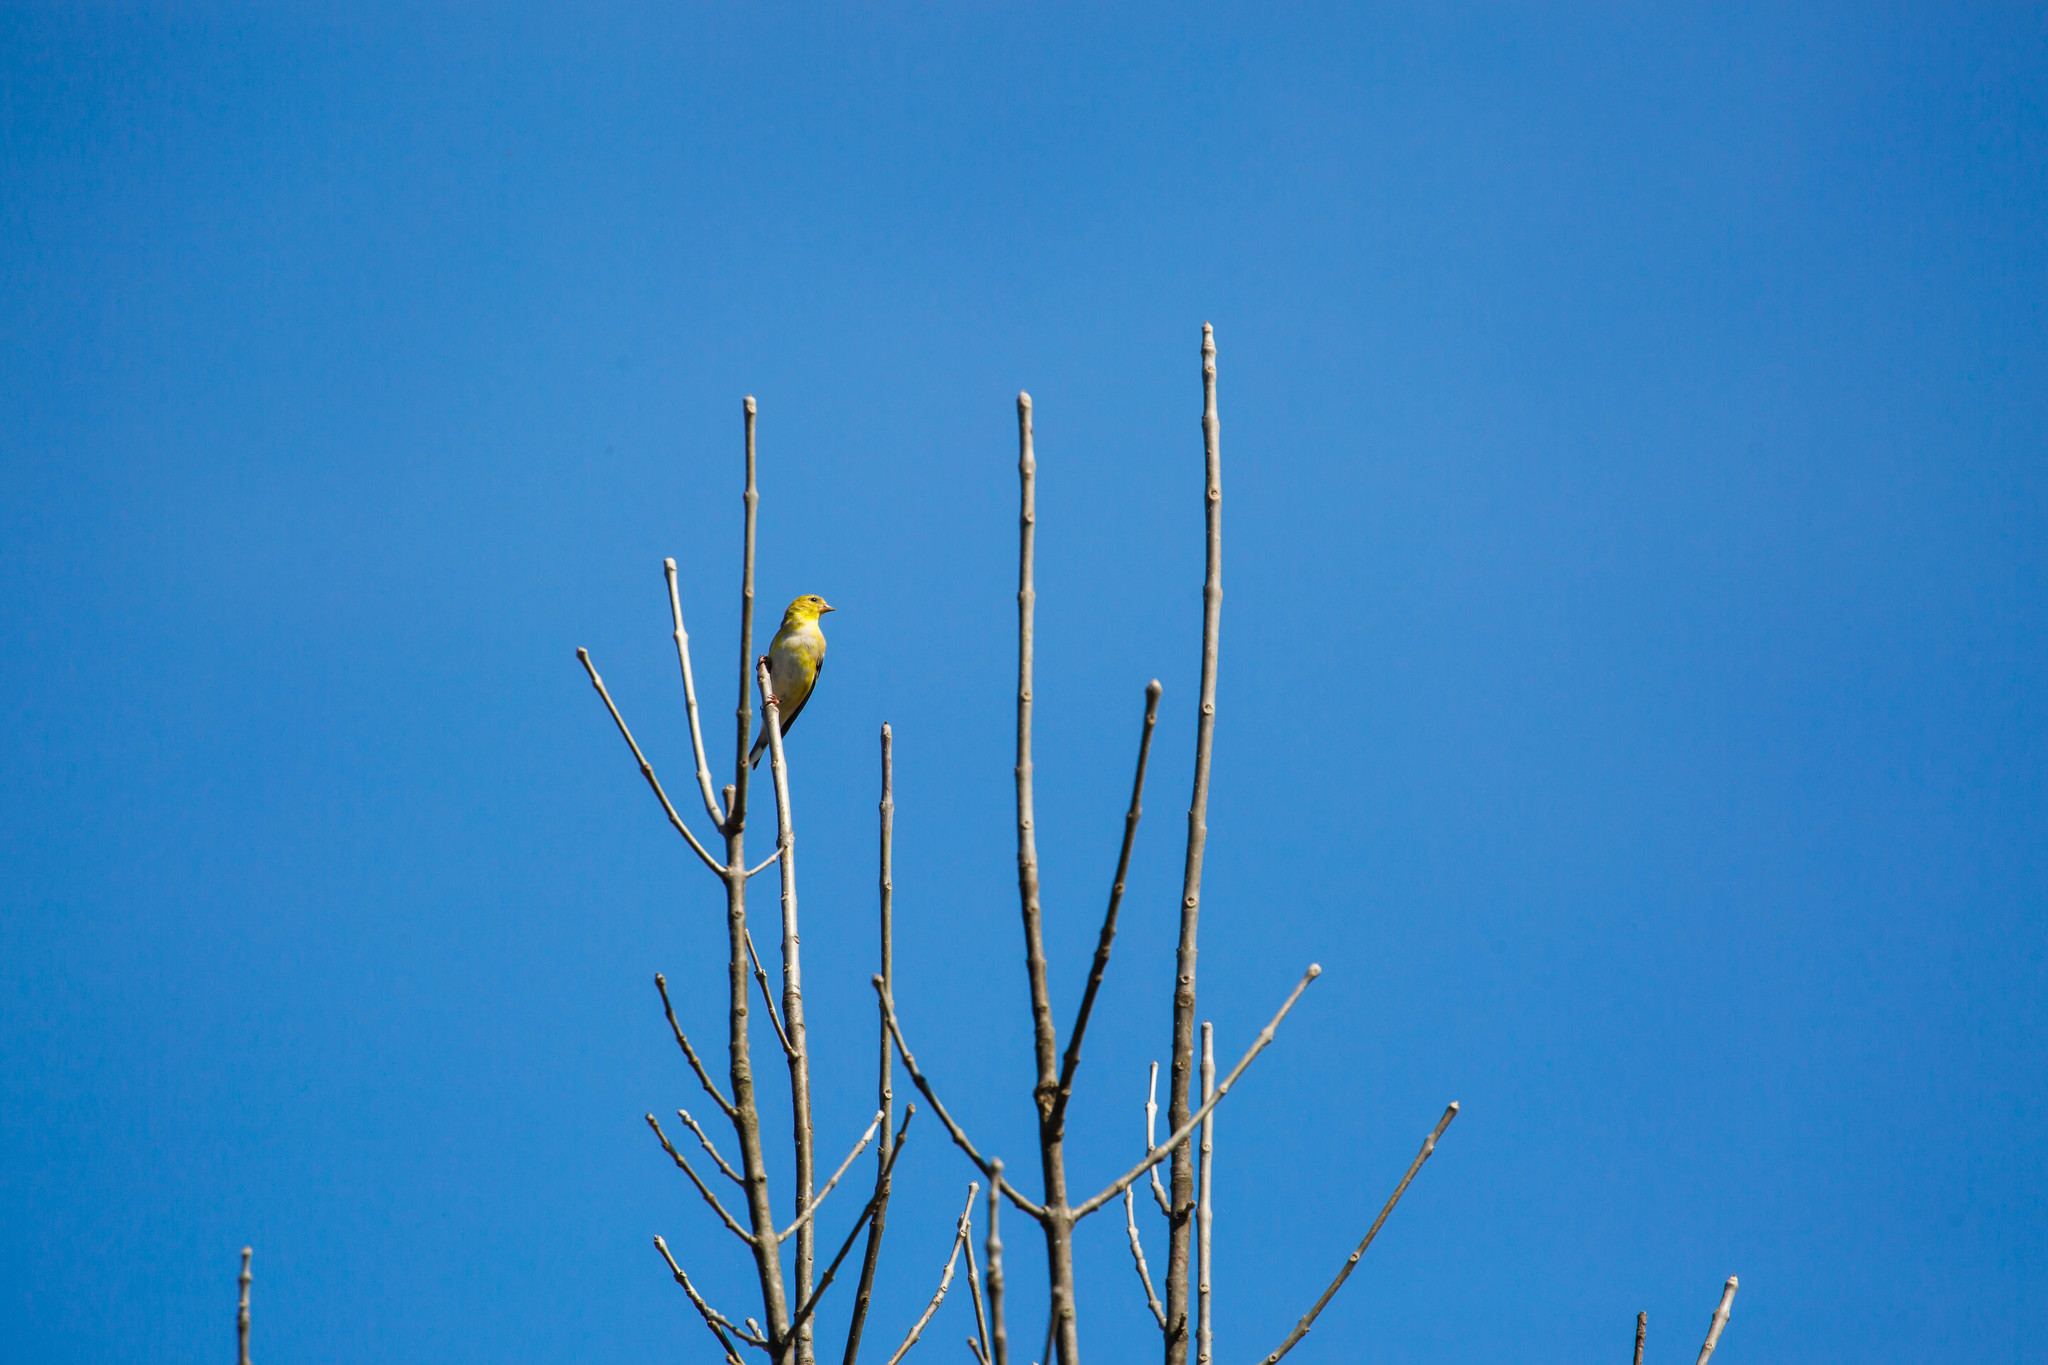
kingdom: Animalia
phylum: Chordata
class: Aves
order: Passeriformes
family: Fringillidae
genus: Spinus
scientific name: Spinus tristis
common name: American goldfinch
